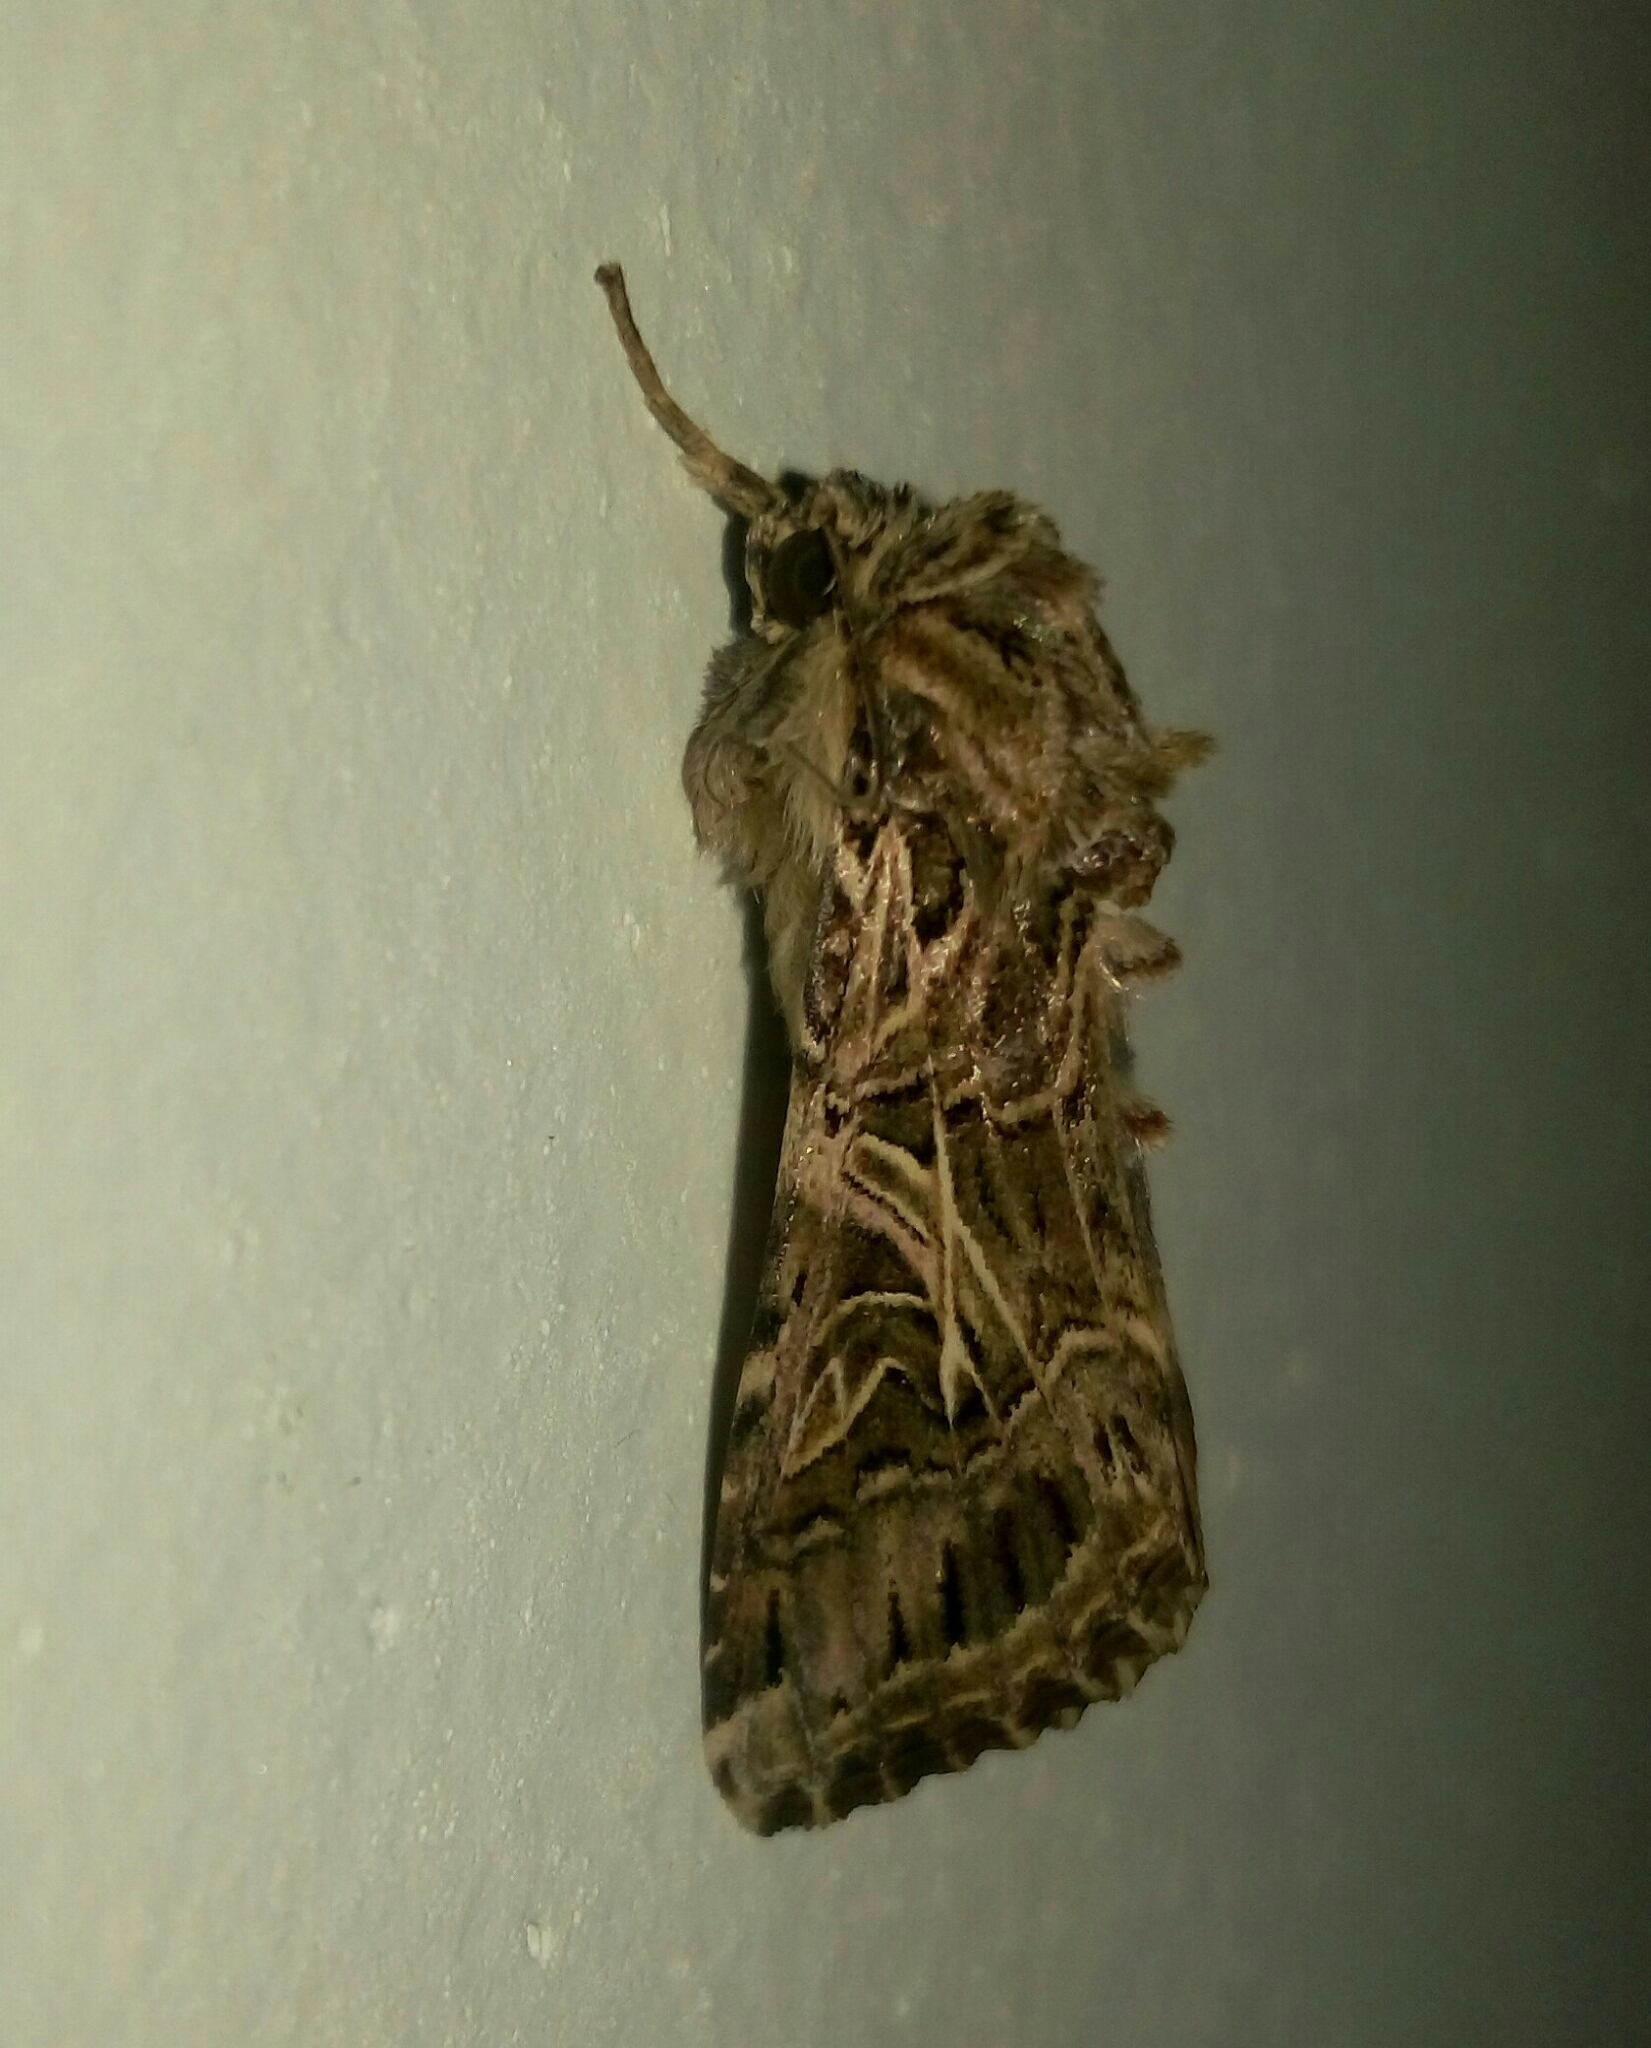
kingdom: Animalia
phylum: Arthropoda
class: Insecta
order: Lepidoptera
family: Noctuidae
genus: Spodoptera
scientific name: Spodoptera litura
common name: Asian cotton leafworm
